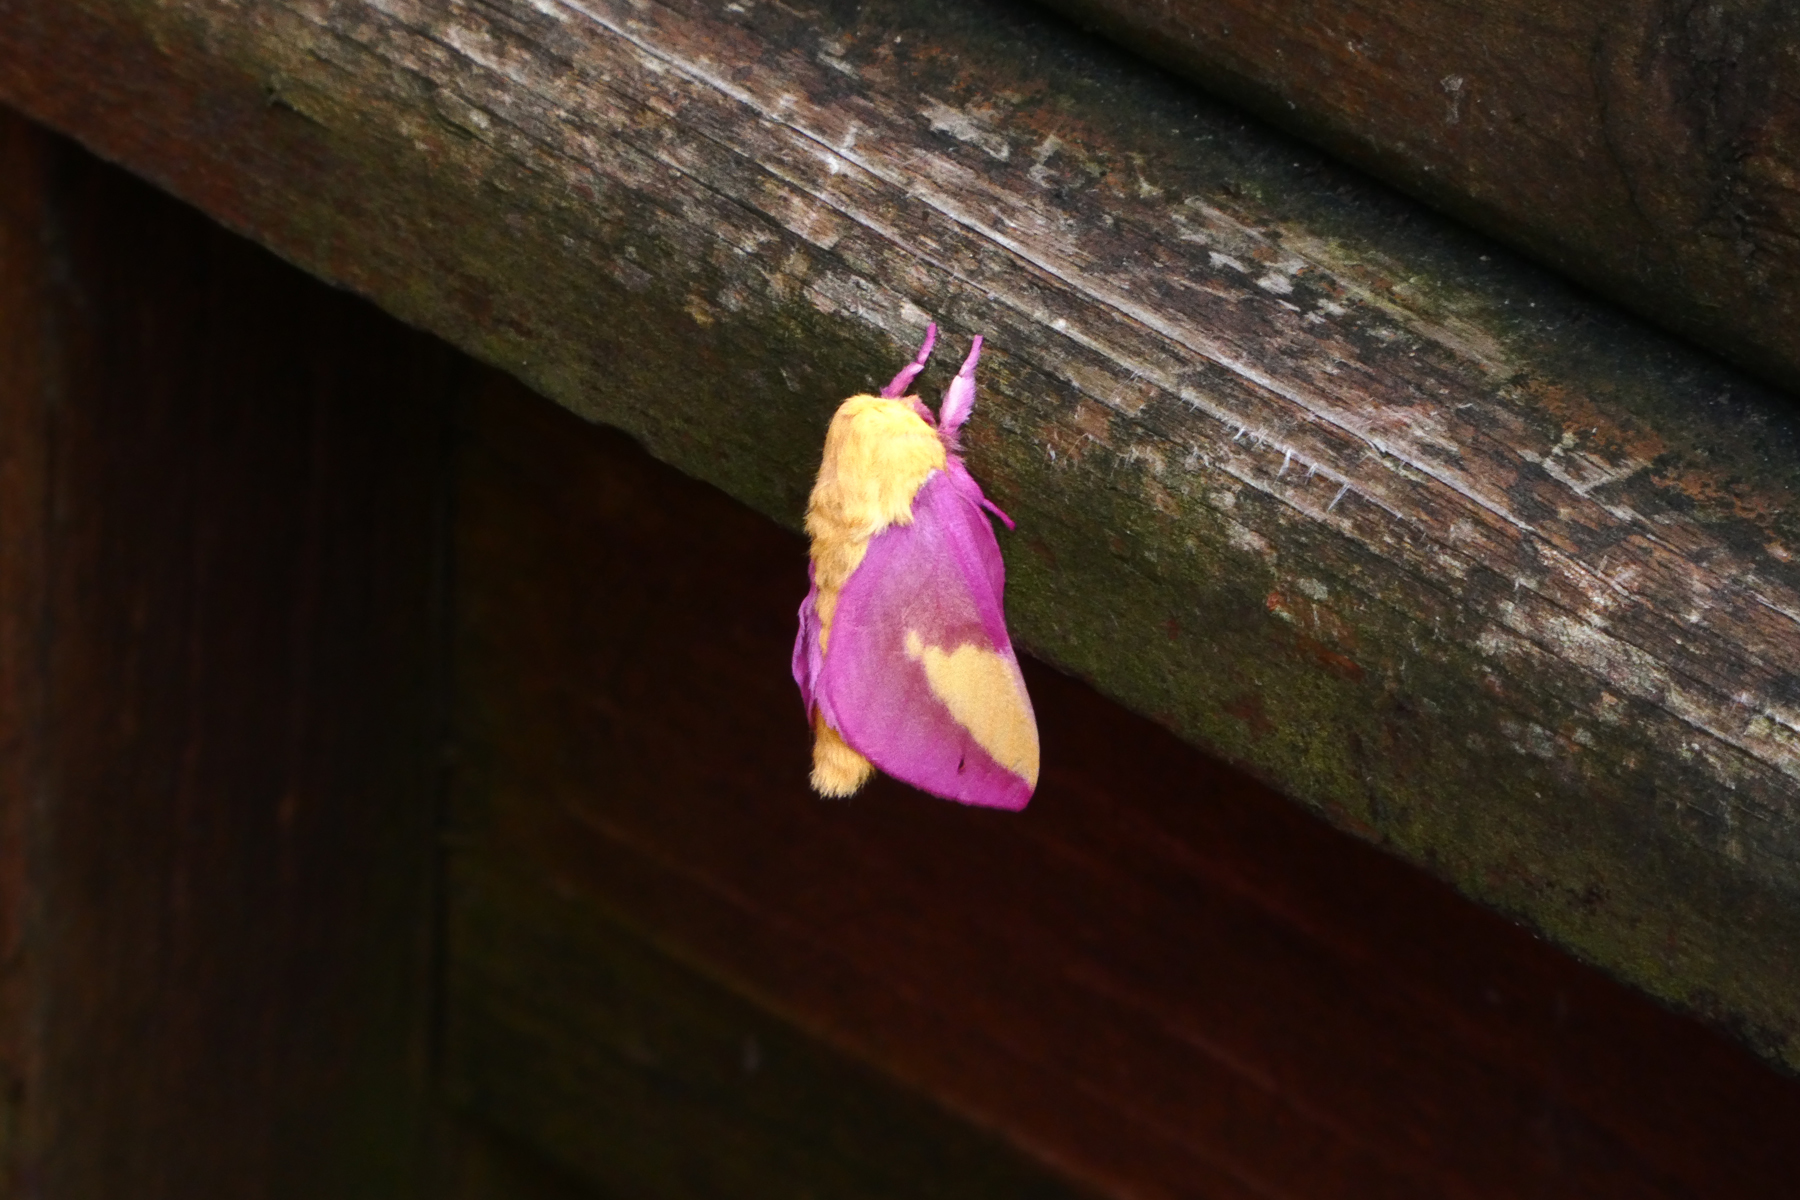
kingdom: Animalia
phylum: Arthropoda
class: Insecta
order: Lepidoptera
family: Saturniidae
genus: Dryocampa
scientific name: Dryocampa rubicunda
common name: Rosy maple moth
